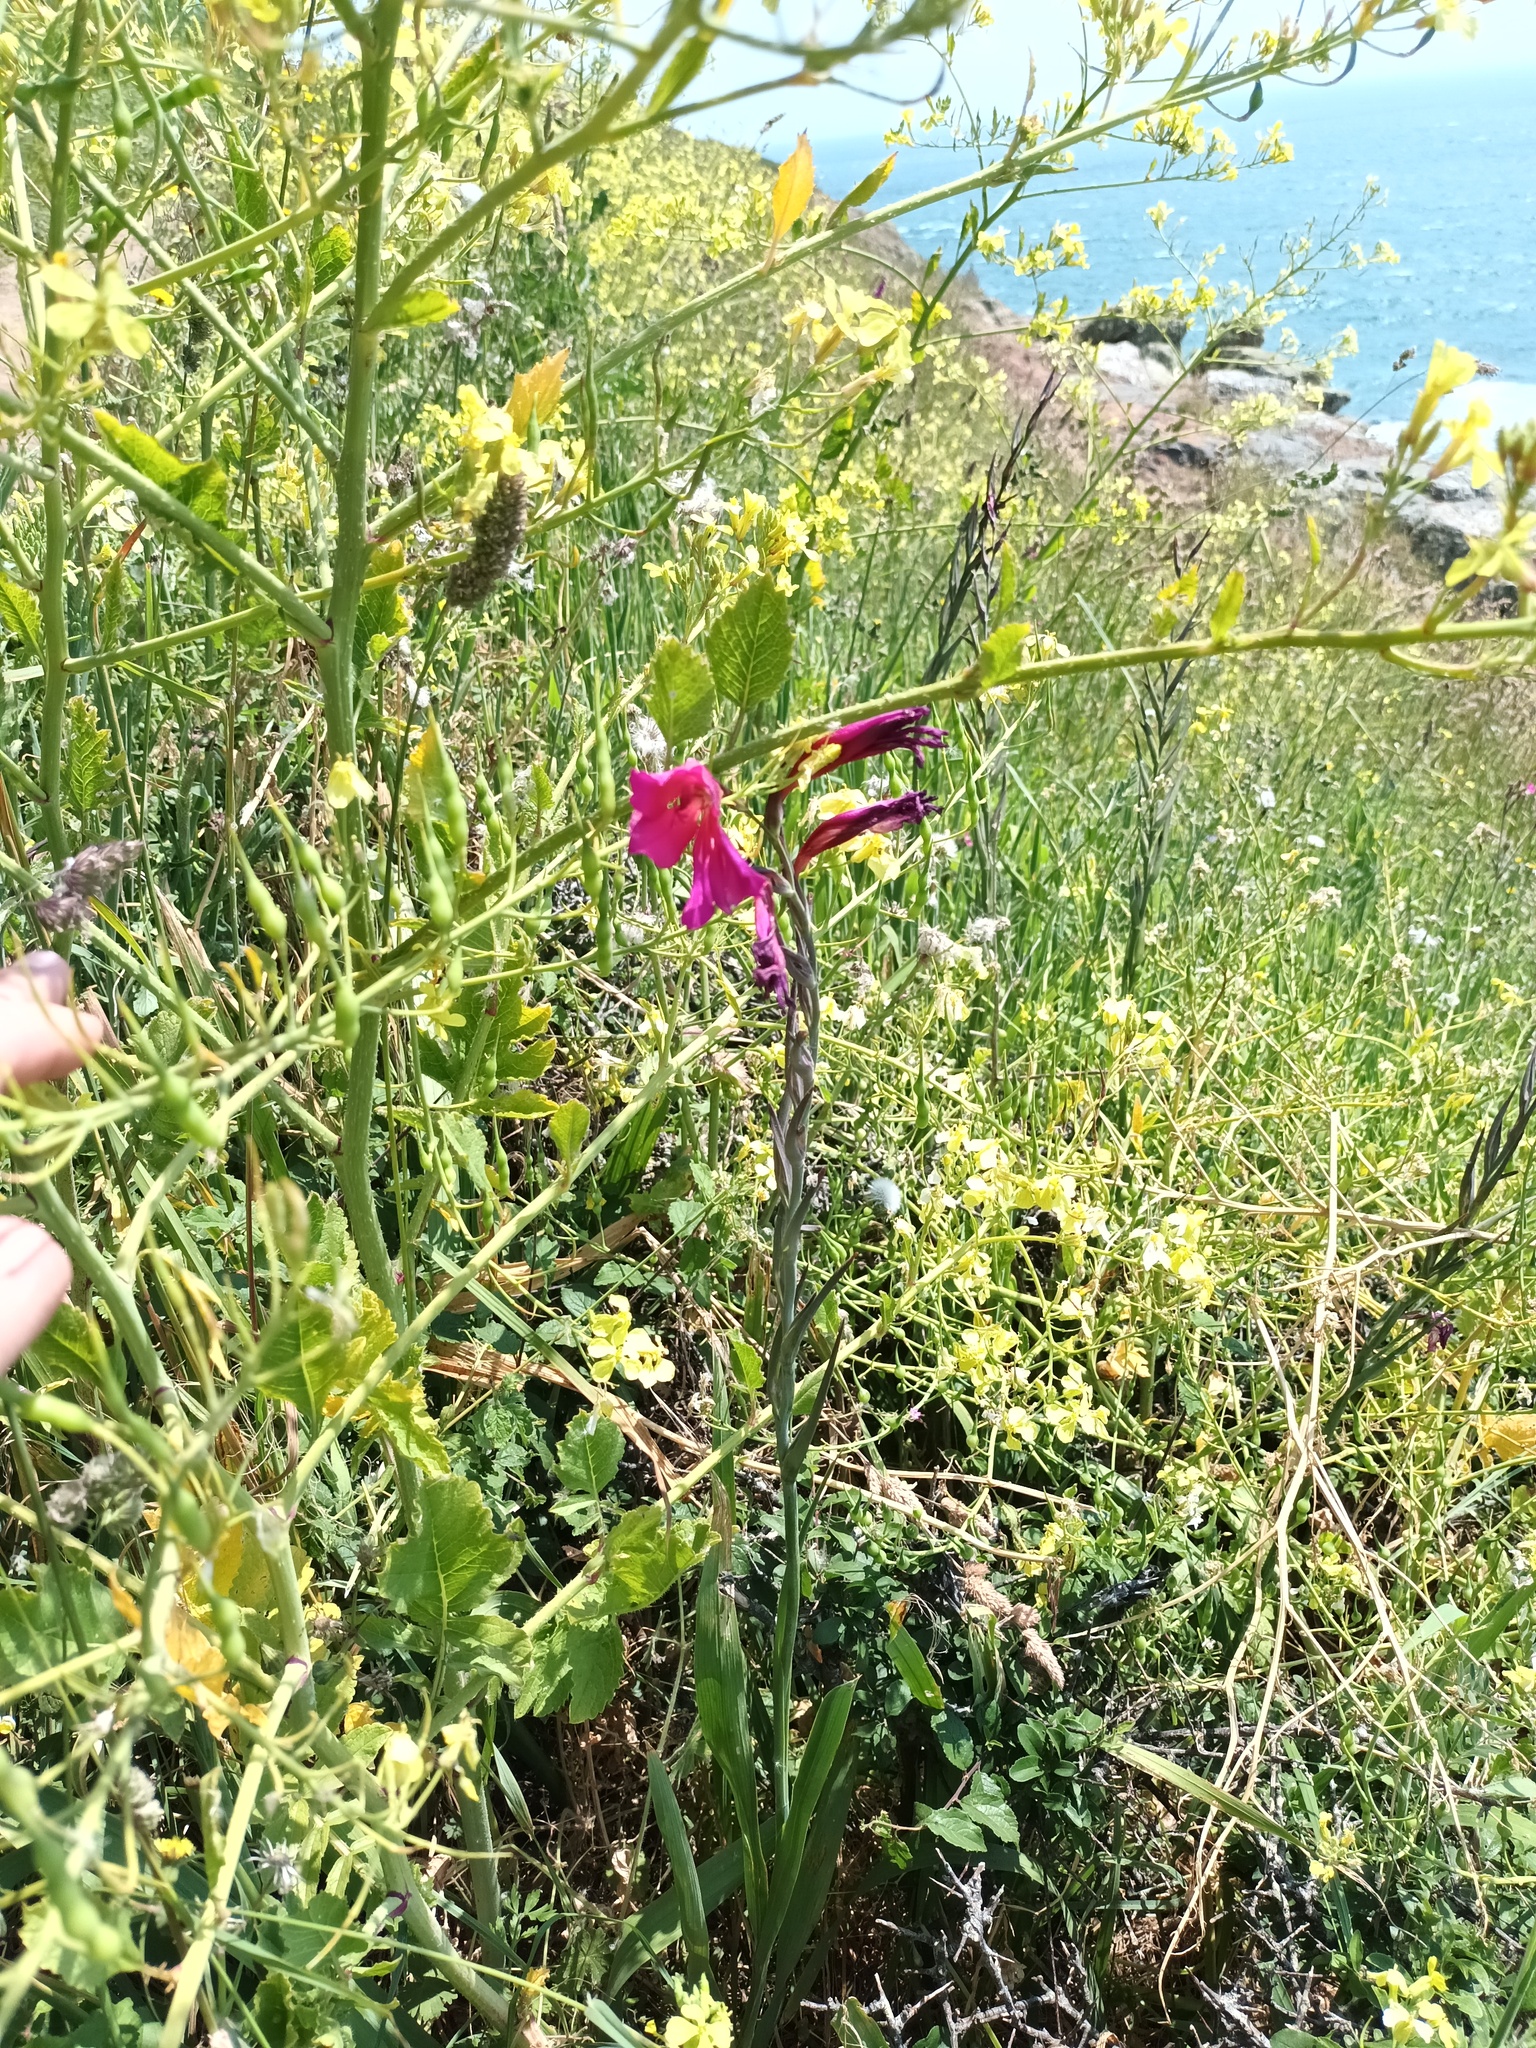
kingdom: Plantae
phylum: Tracheophyta
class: Liliopsida
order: Asparagales
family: Iridaceae
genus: Gladiolus
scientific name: Gladiolus communis
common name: Eastern gladiolus
